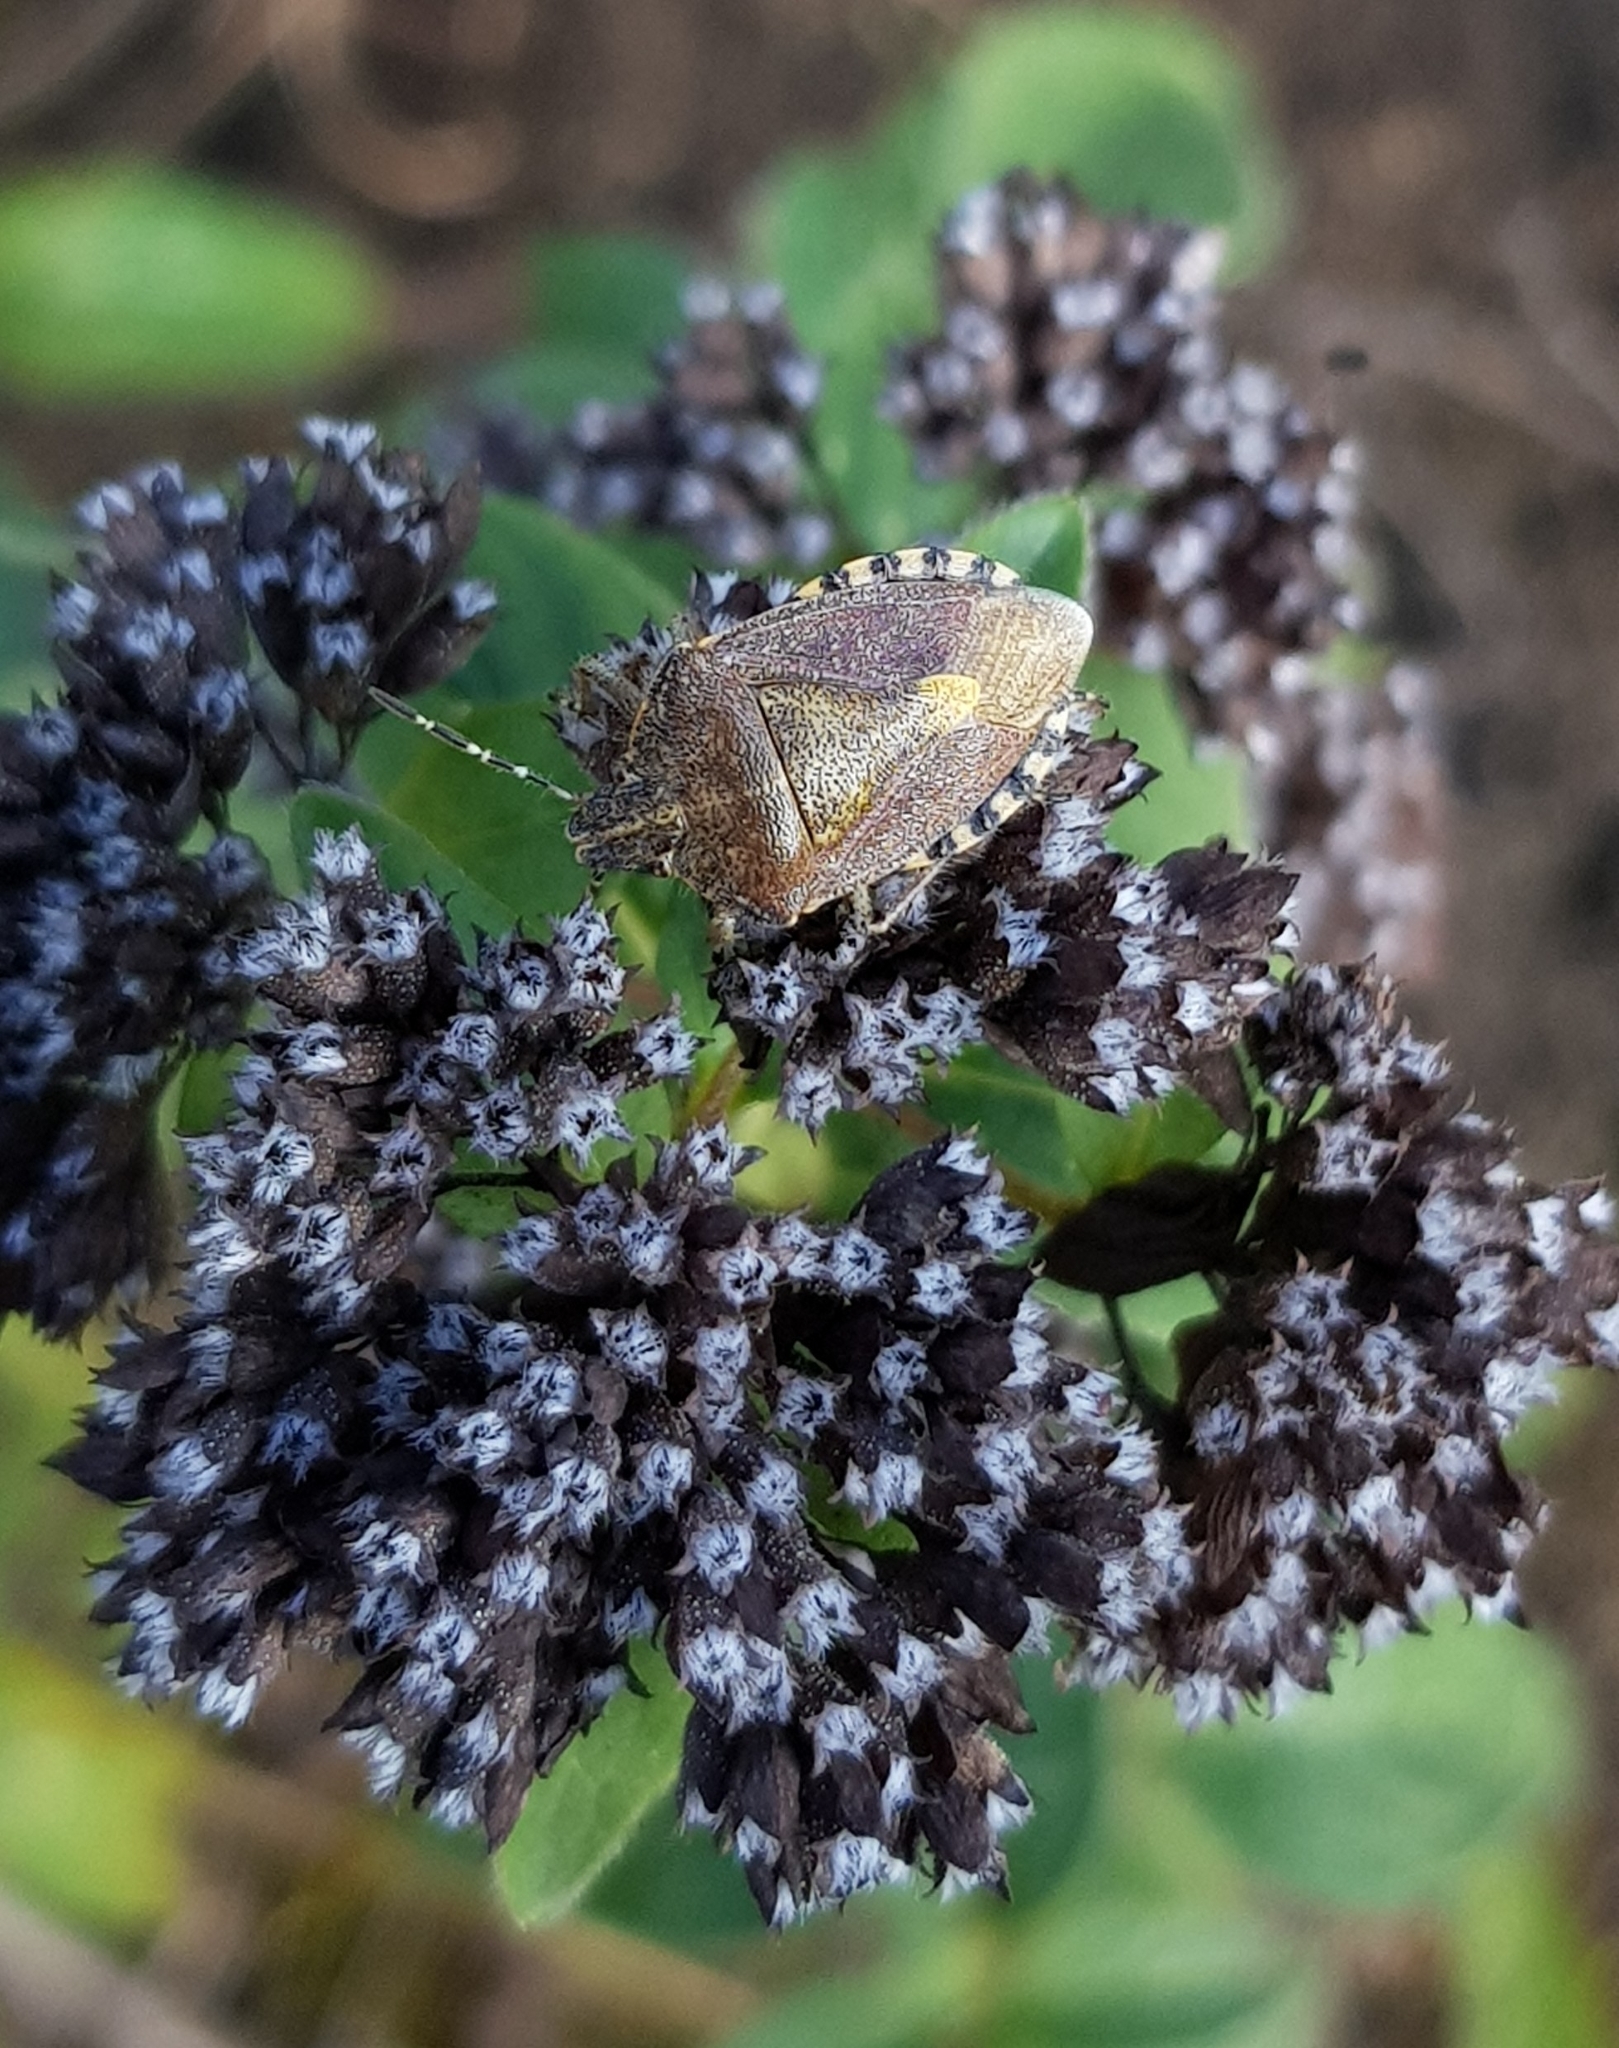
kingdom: Animalia
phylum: Arthropoda
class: Insecta
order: Hemiptera
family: Pentatomidae
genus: Dolycoris
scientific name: Dolycoris baccarum
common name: Sloe bug
